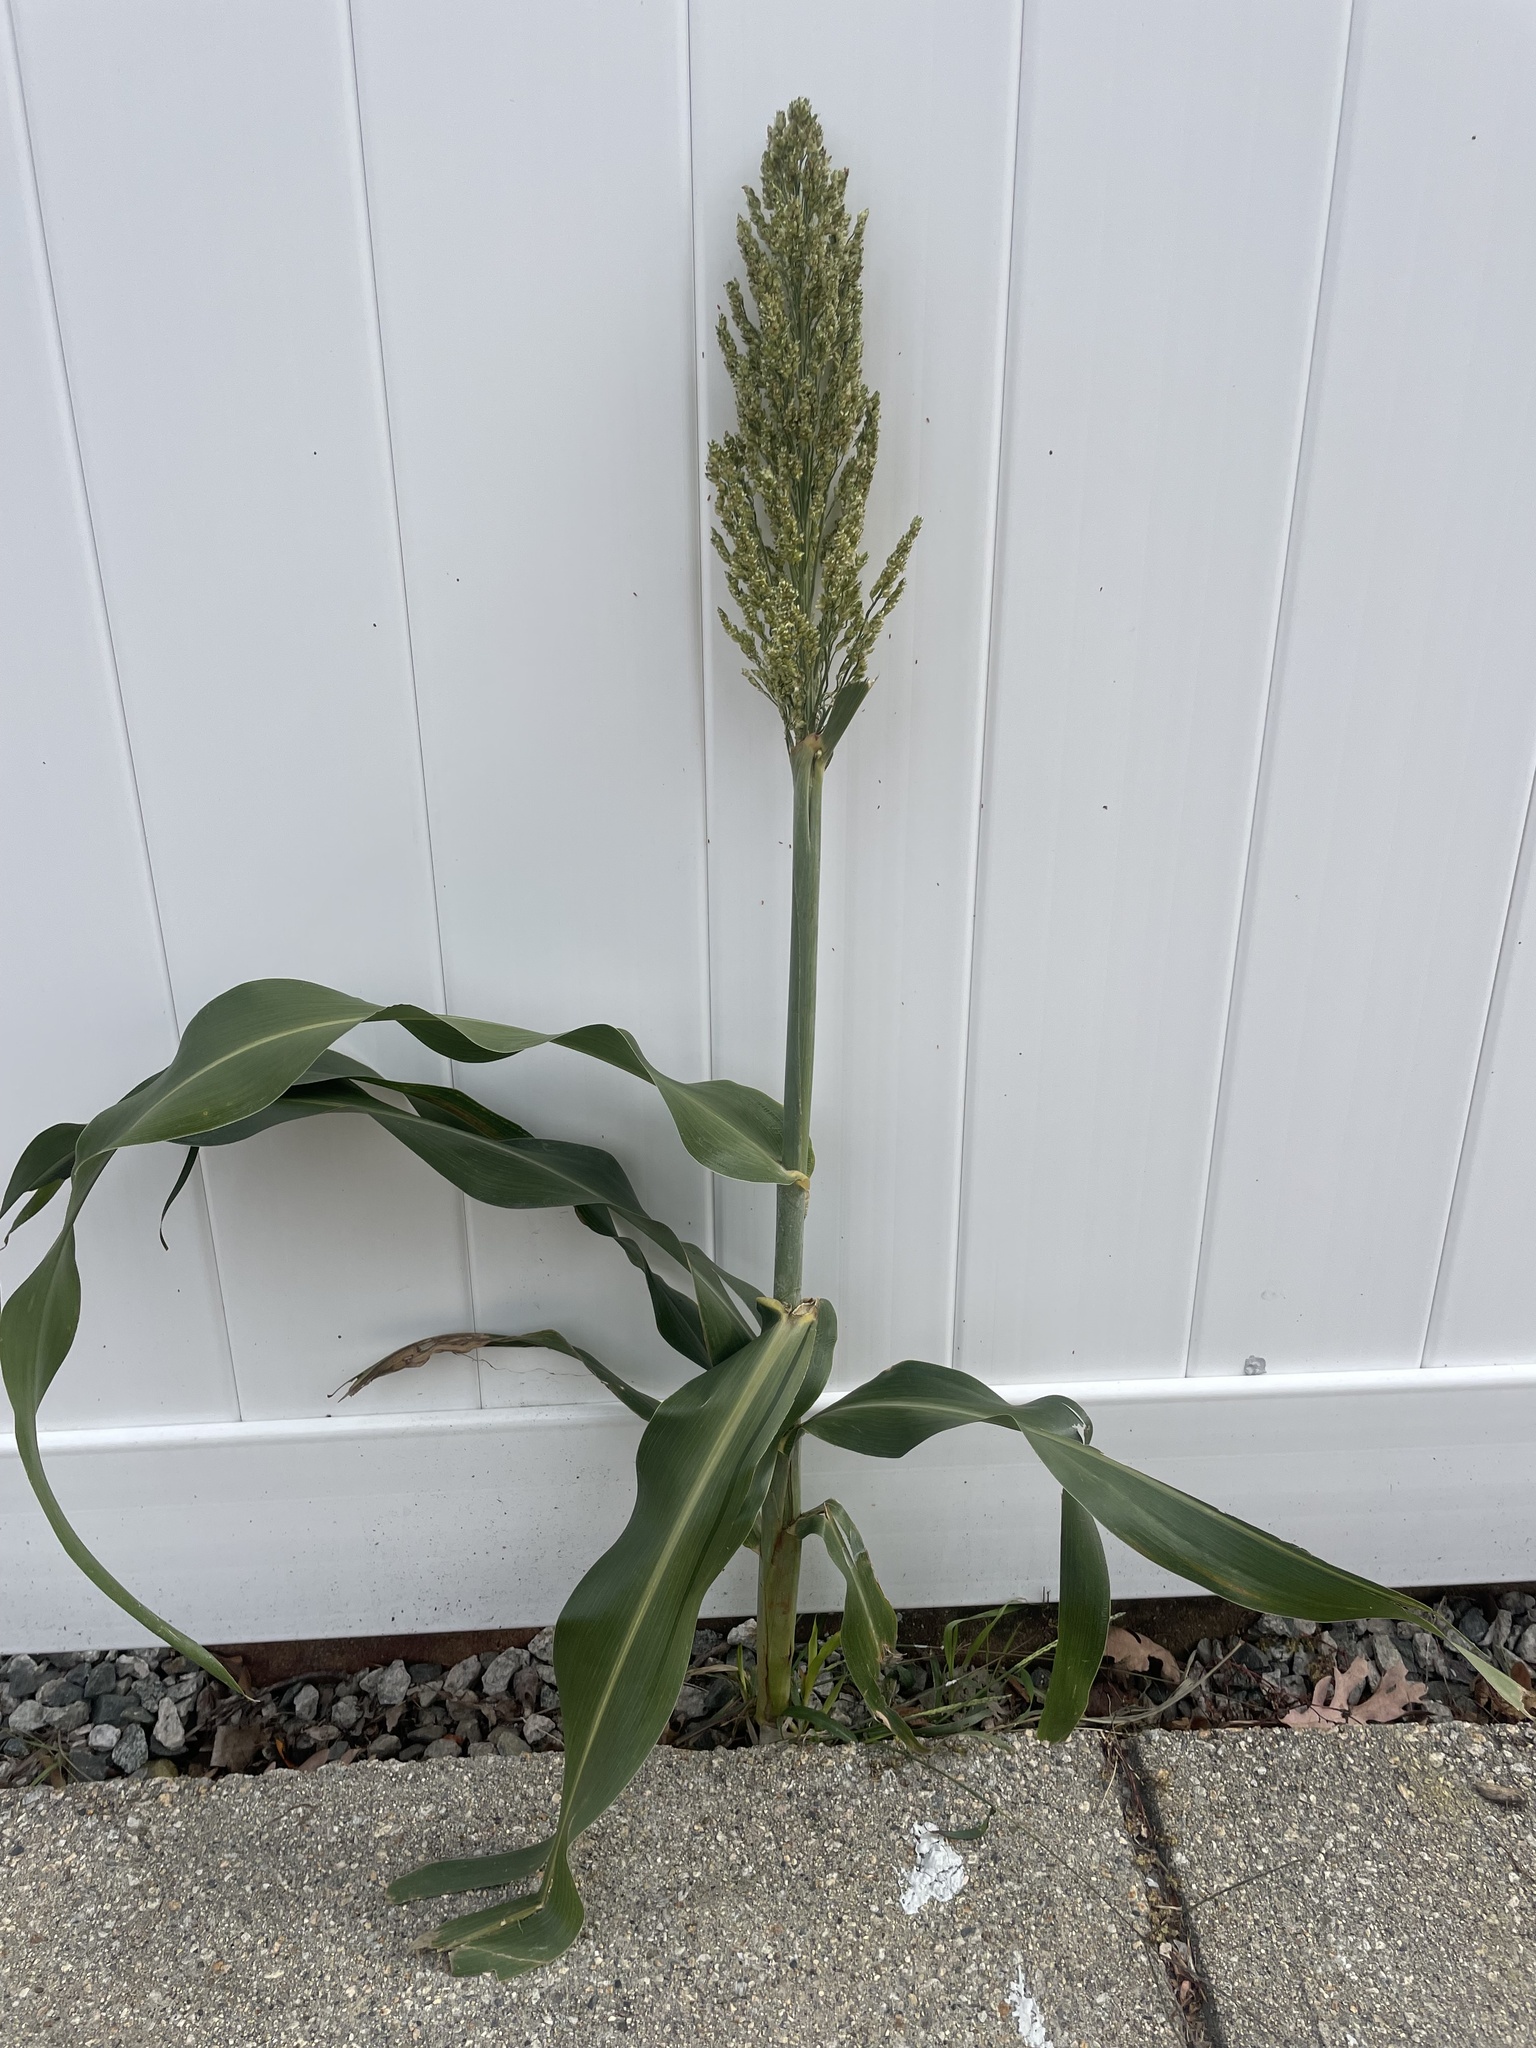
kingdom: Plantae
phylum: Tracheophyta
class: Liliopsida
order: Poales
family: Poaceae
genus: Sorghum
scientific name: Sorghum bicolor
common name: Sorghum
